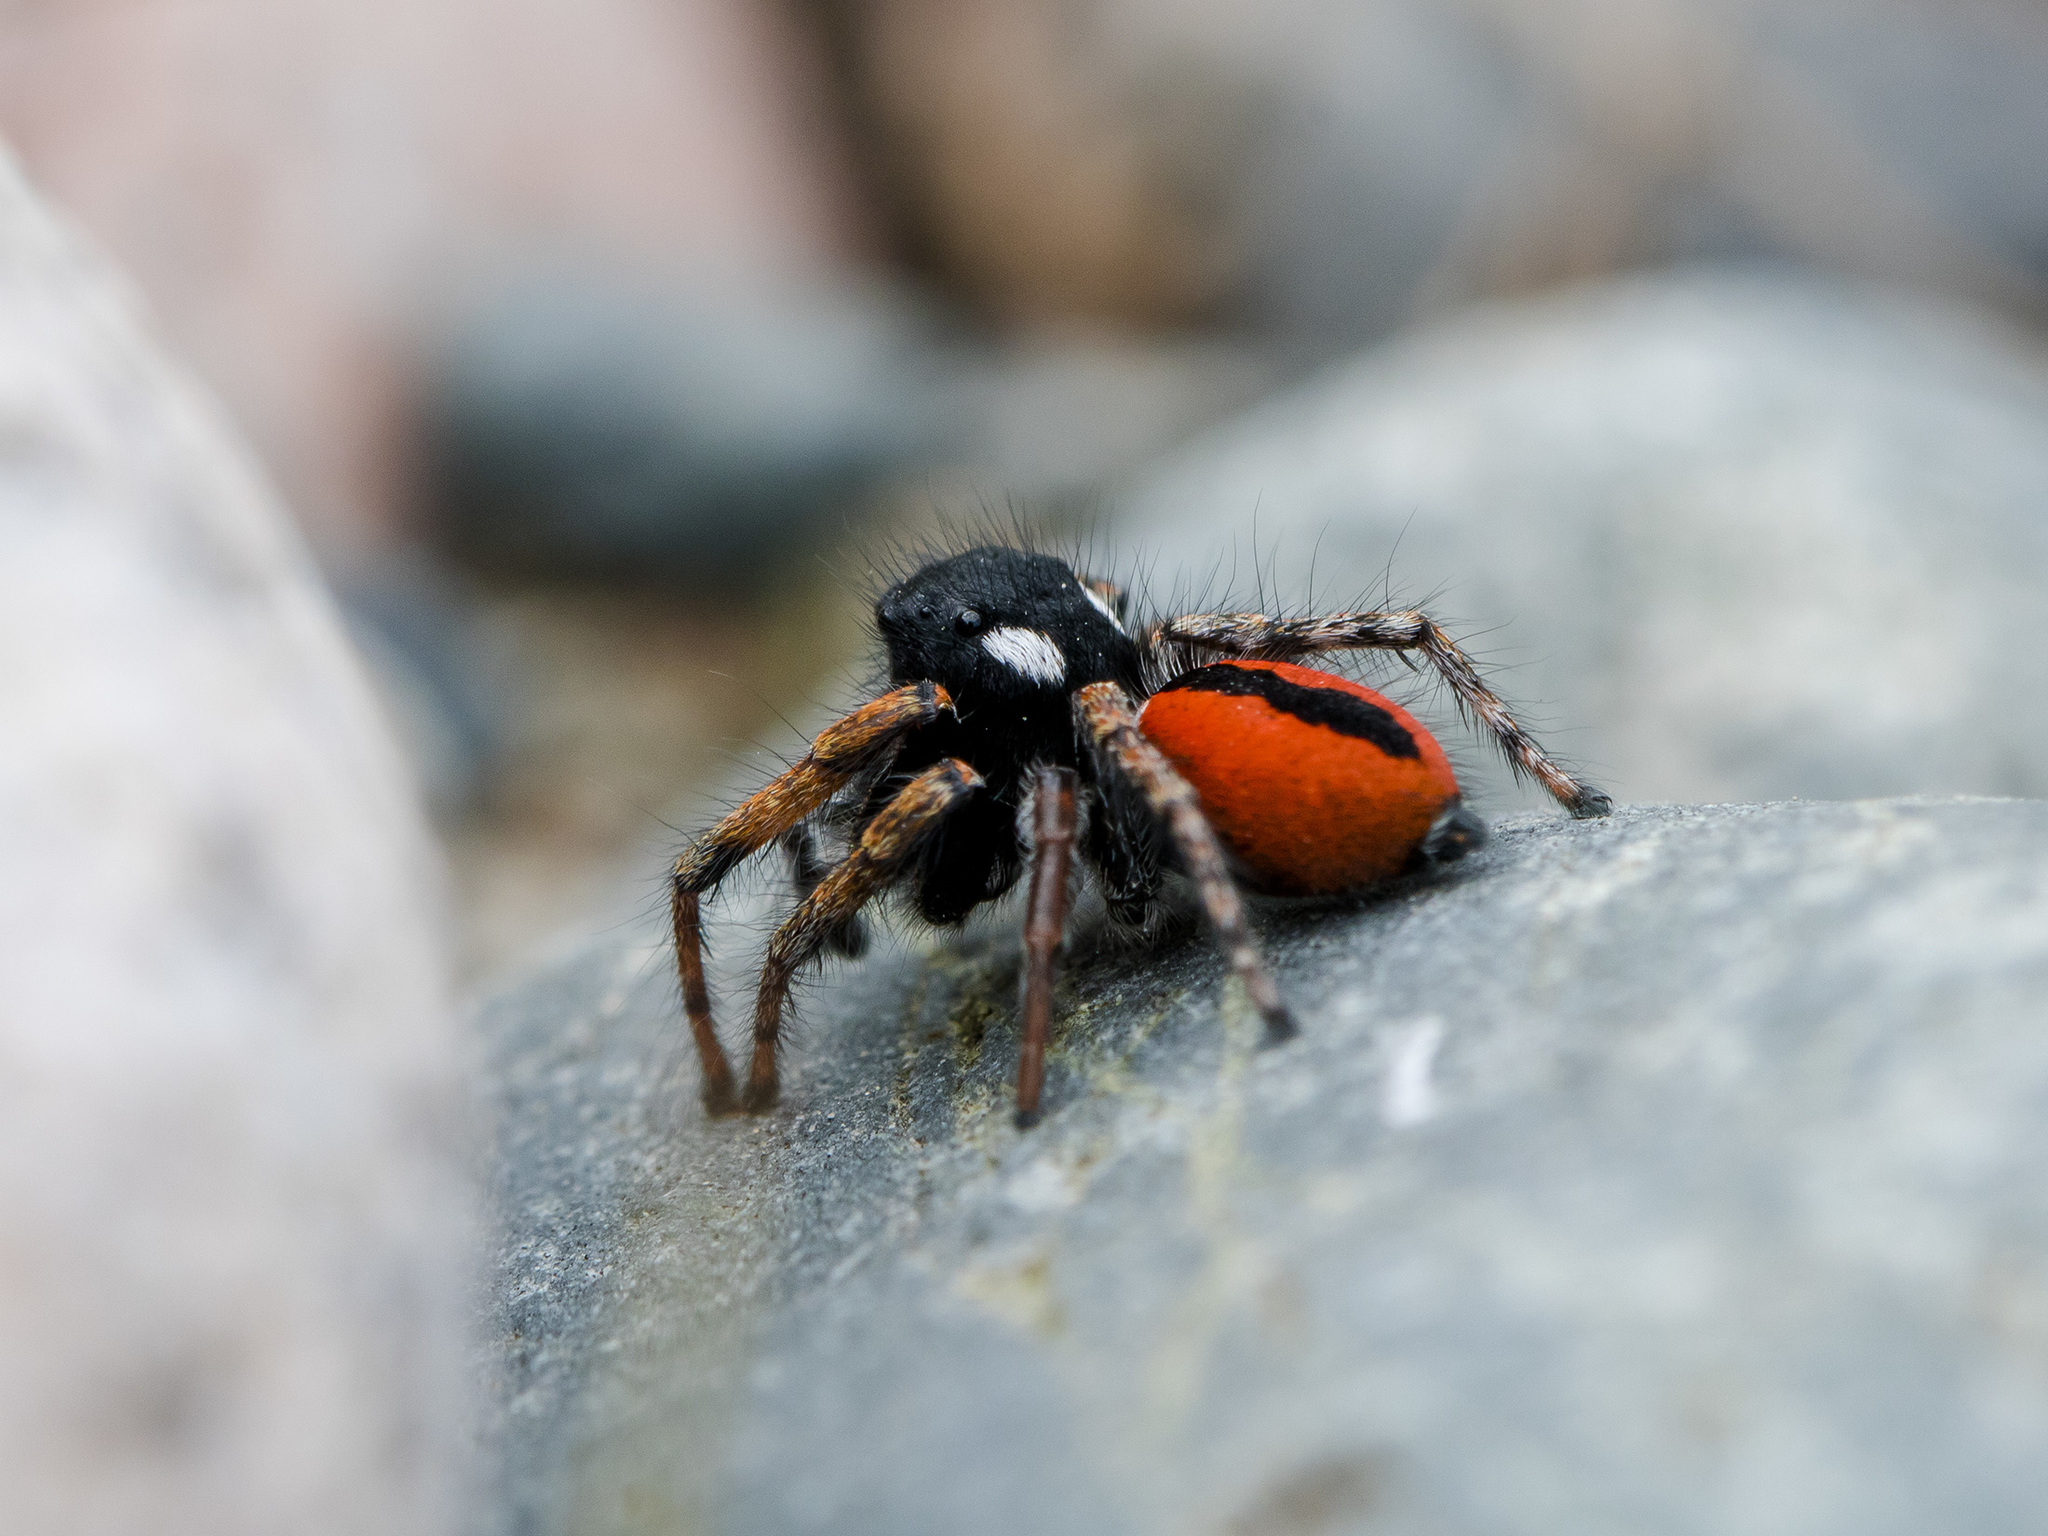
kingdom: Animalia
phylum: Arthropoda
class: Arachnida
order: Araneae
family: Salticidae
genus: Philaeus
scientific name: Philaeus chrysops
